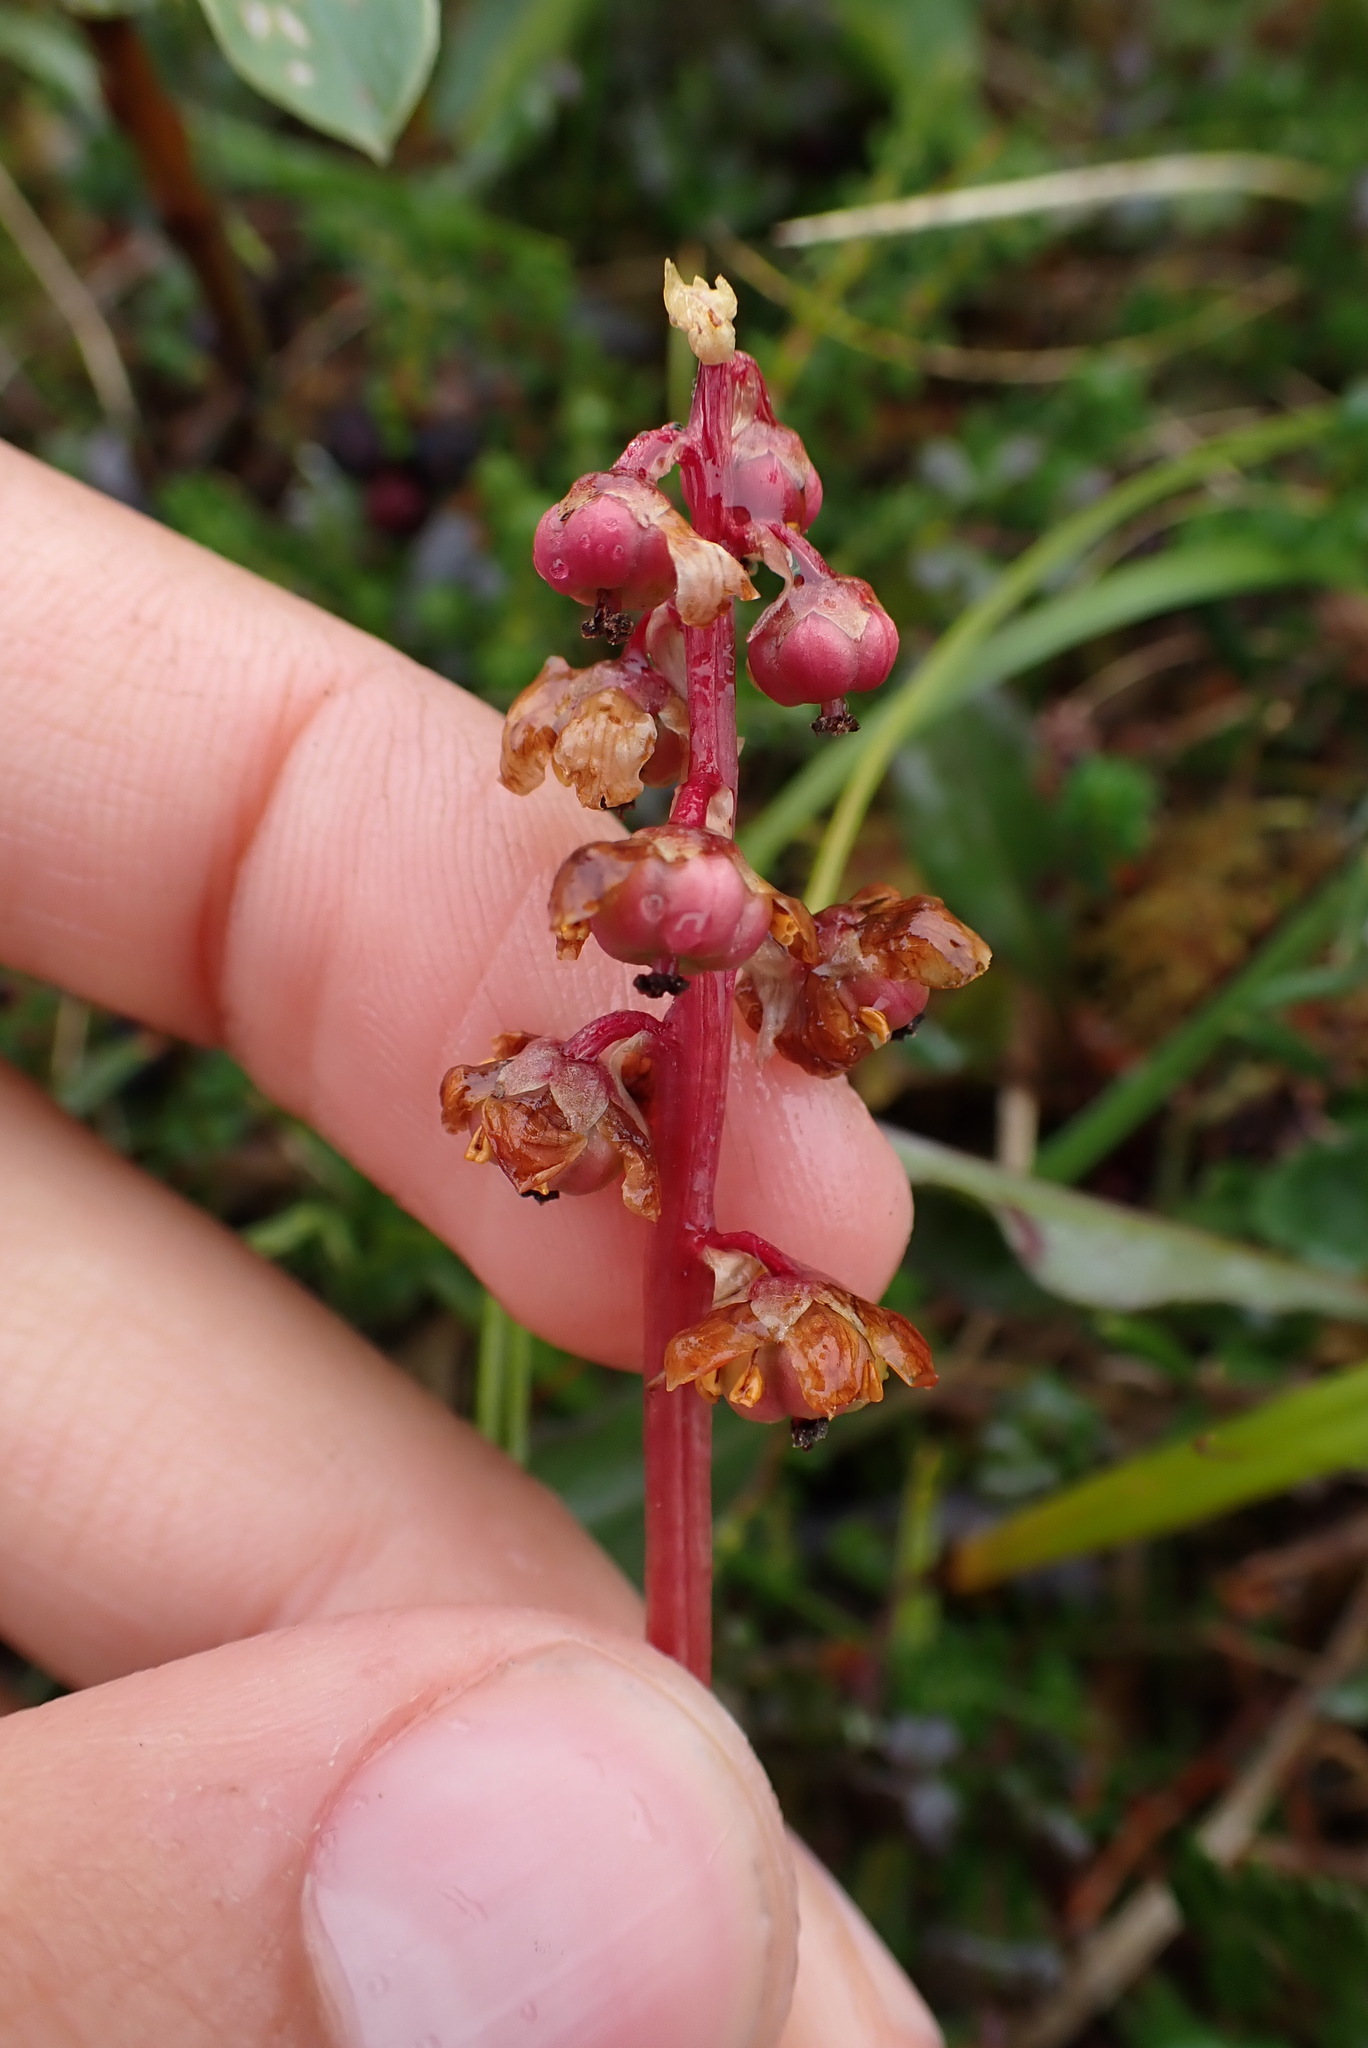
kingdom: Plantae
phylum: Tracheophyta
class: Magnoliopsida
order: Ericales
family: Ericaceae
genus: Pyrola
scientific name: Pyrola minor
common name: Common wintergreen
